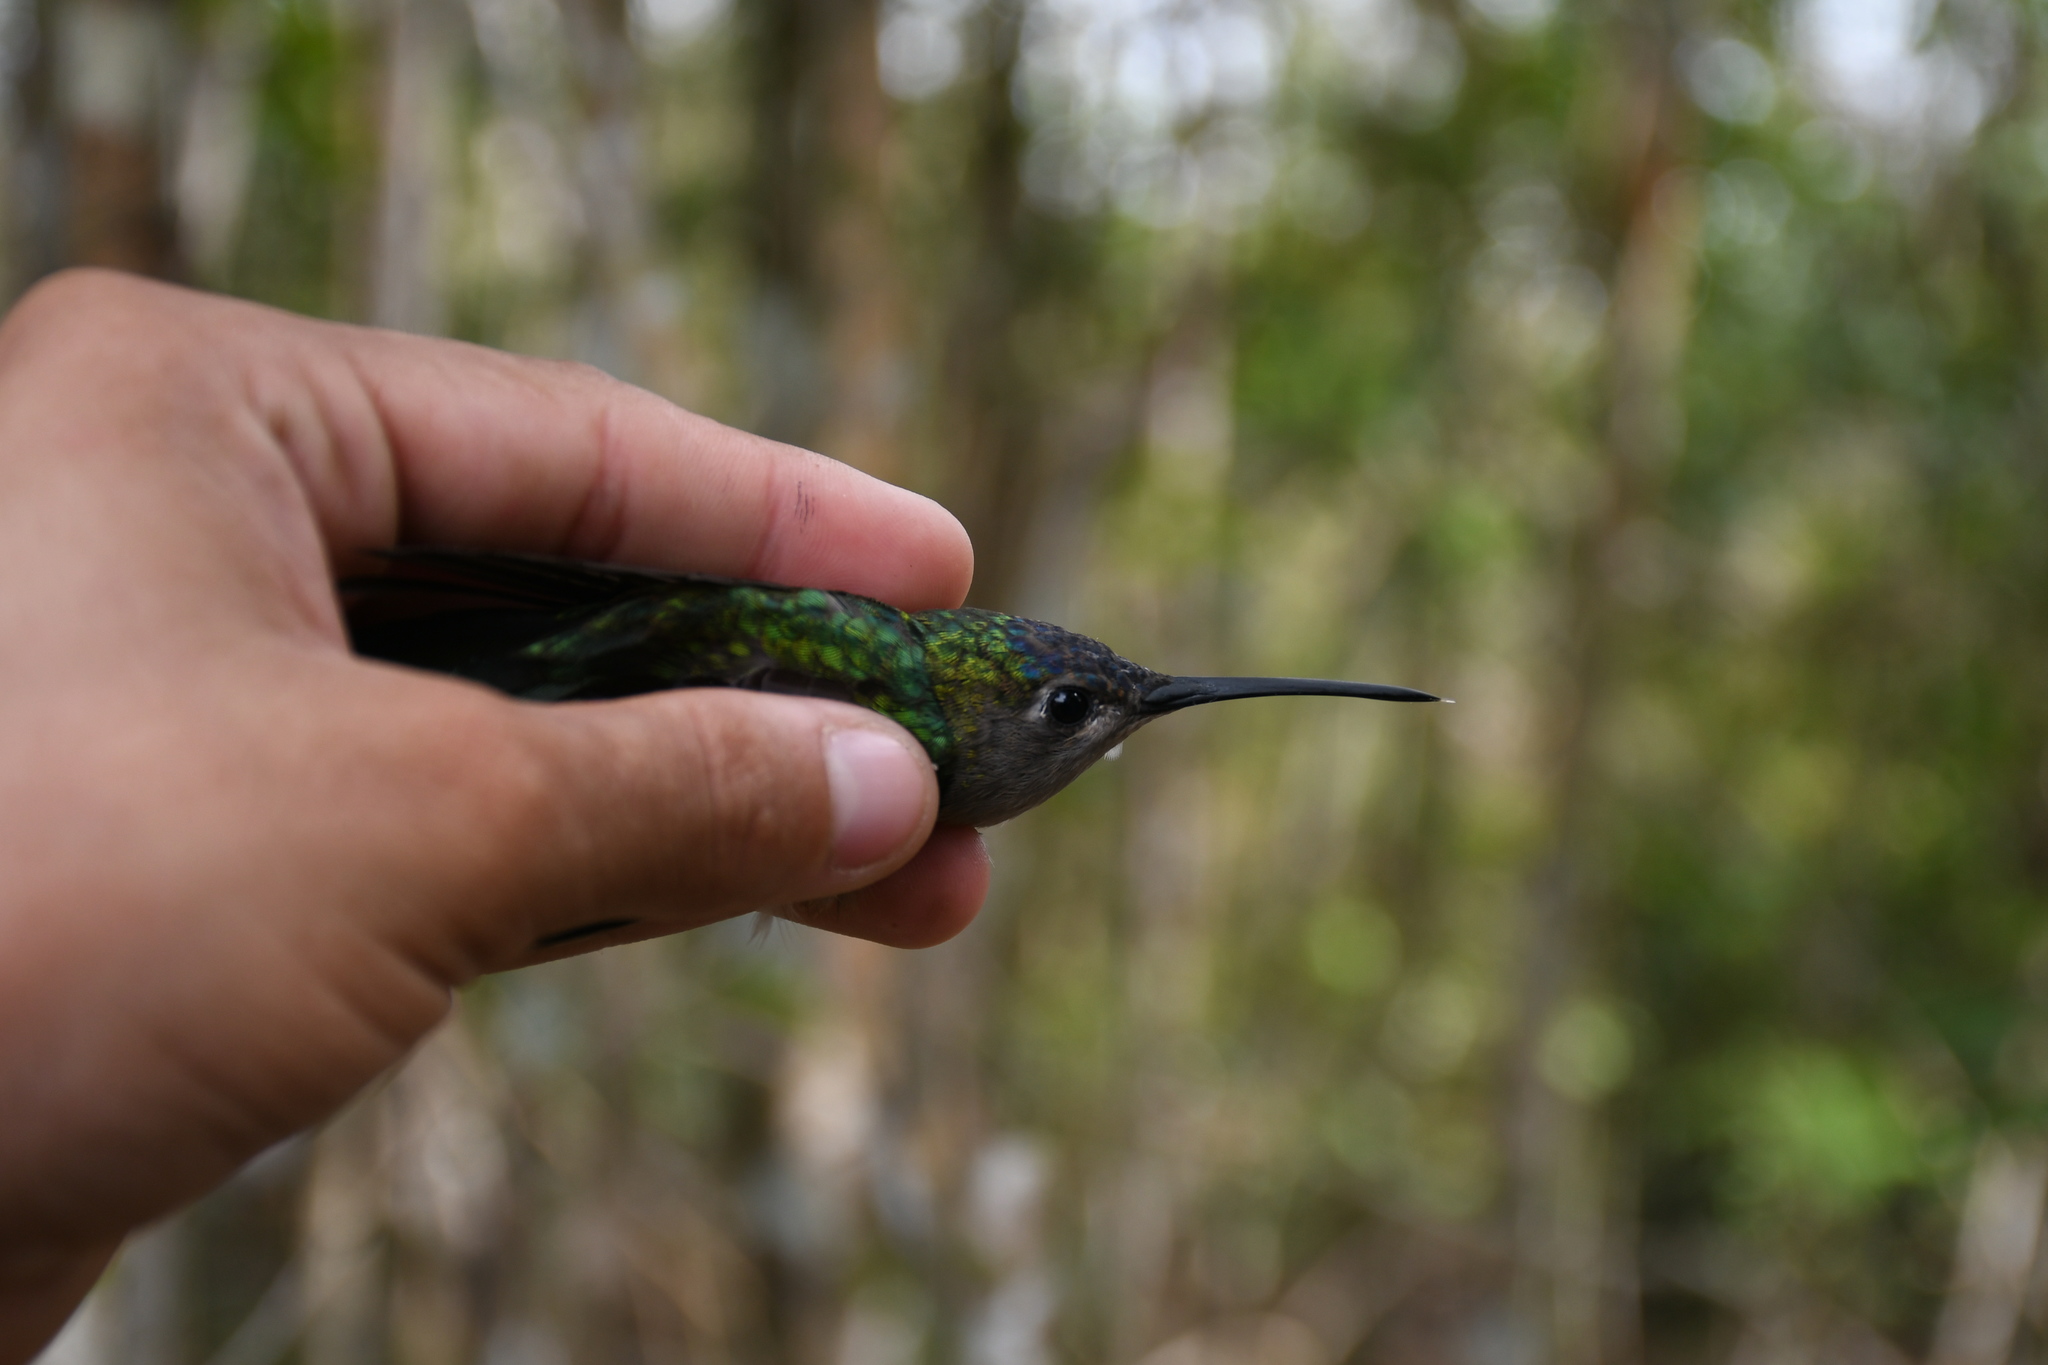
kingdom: Animalia
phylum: Chordata
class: Aves
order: Apodiformes
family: Trochilidae
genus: Pampa
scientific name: Pampa curvipennis
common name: Curve-winged sabrewing
